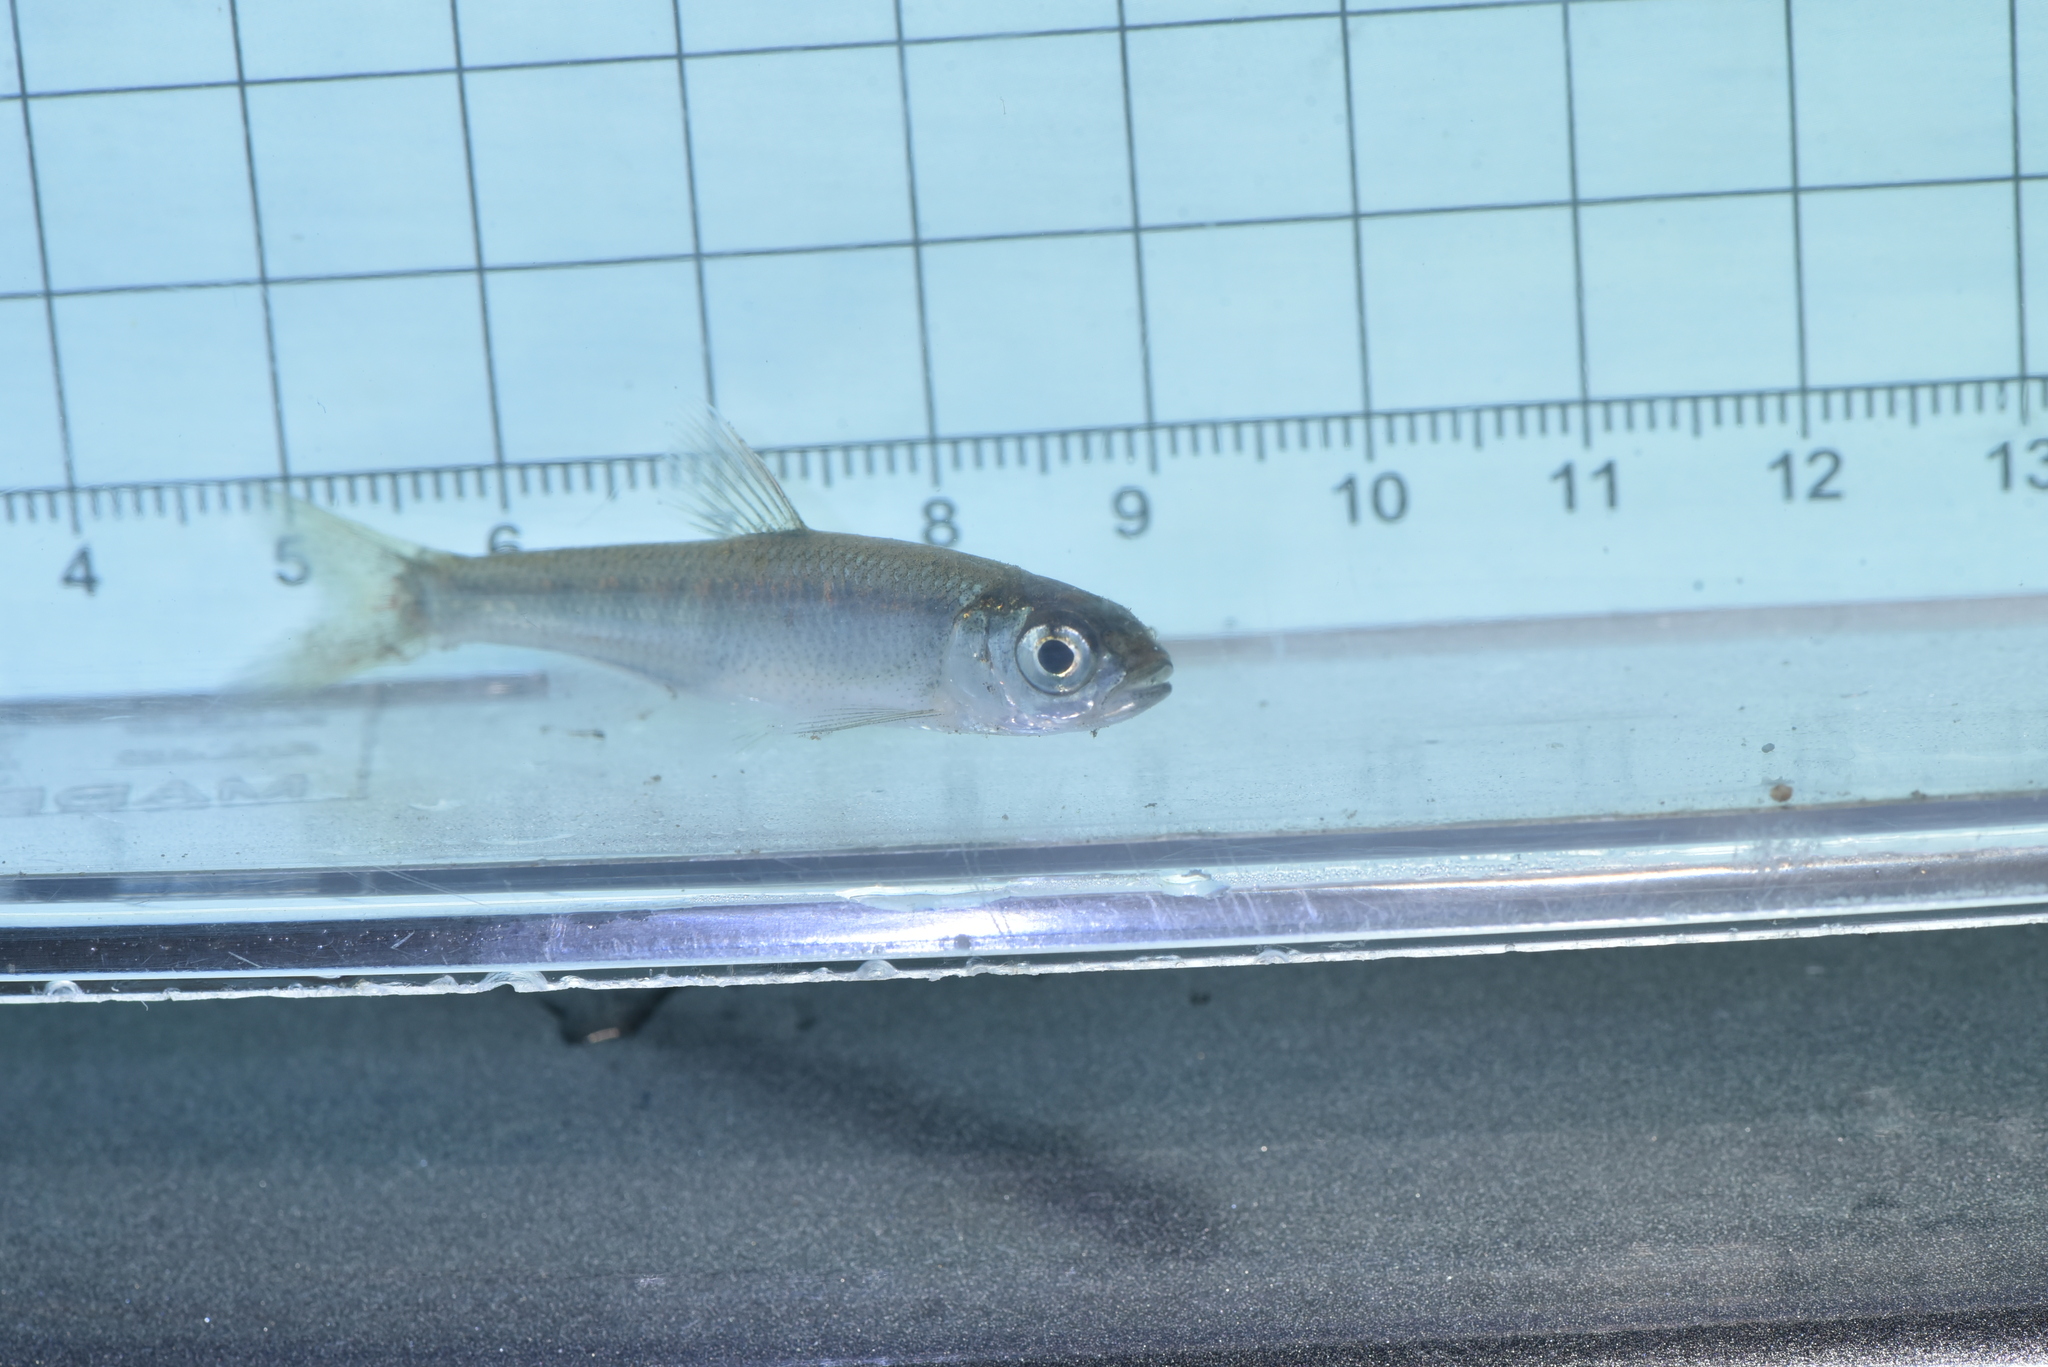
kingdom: Animalia
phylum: Chordata
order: Cypriniformes
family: Cyprinidae
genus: Opsariichthys
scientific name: Opsariichthys pachycephalus
